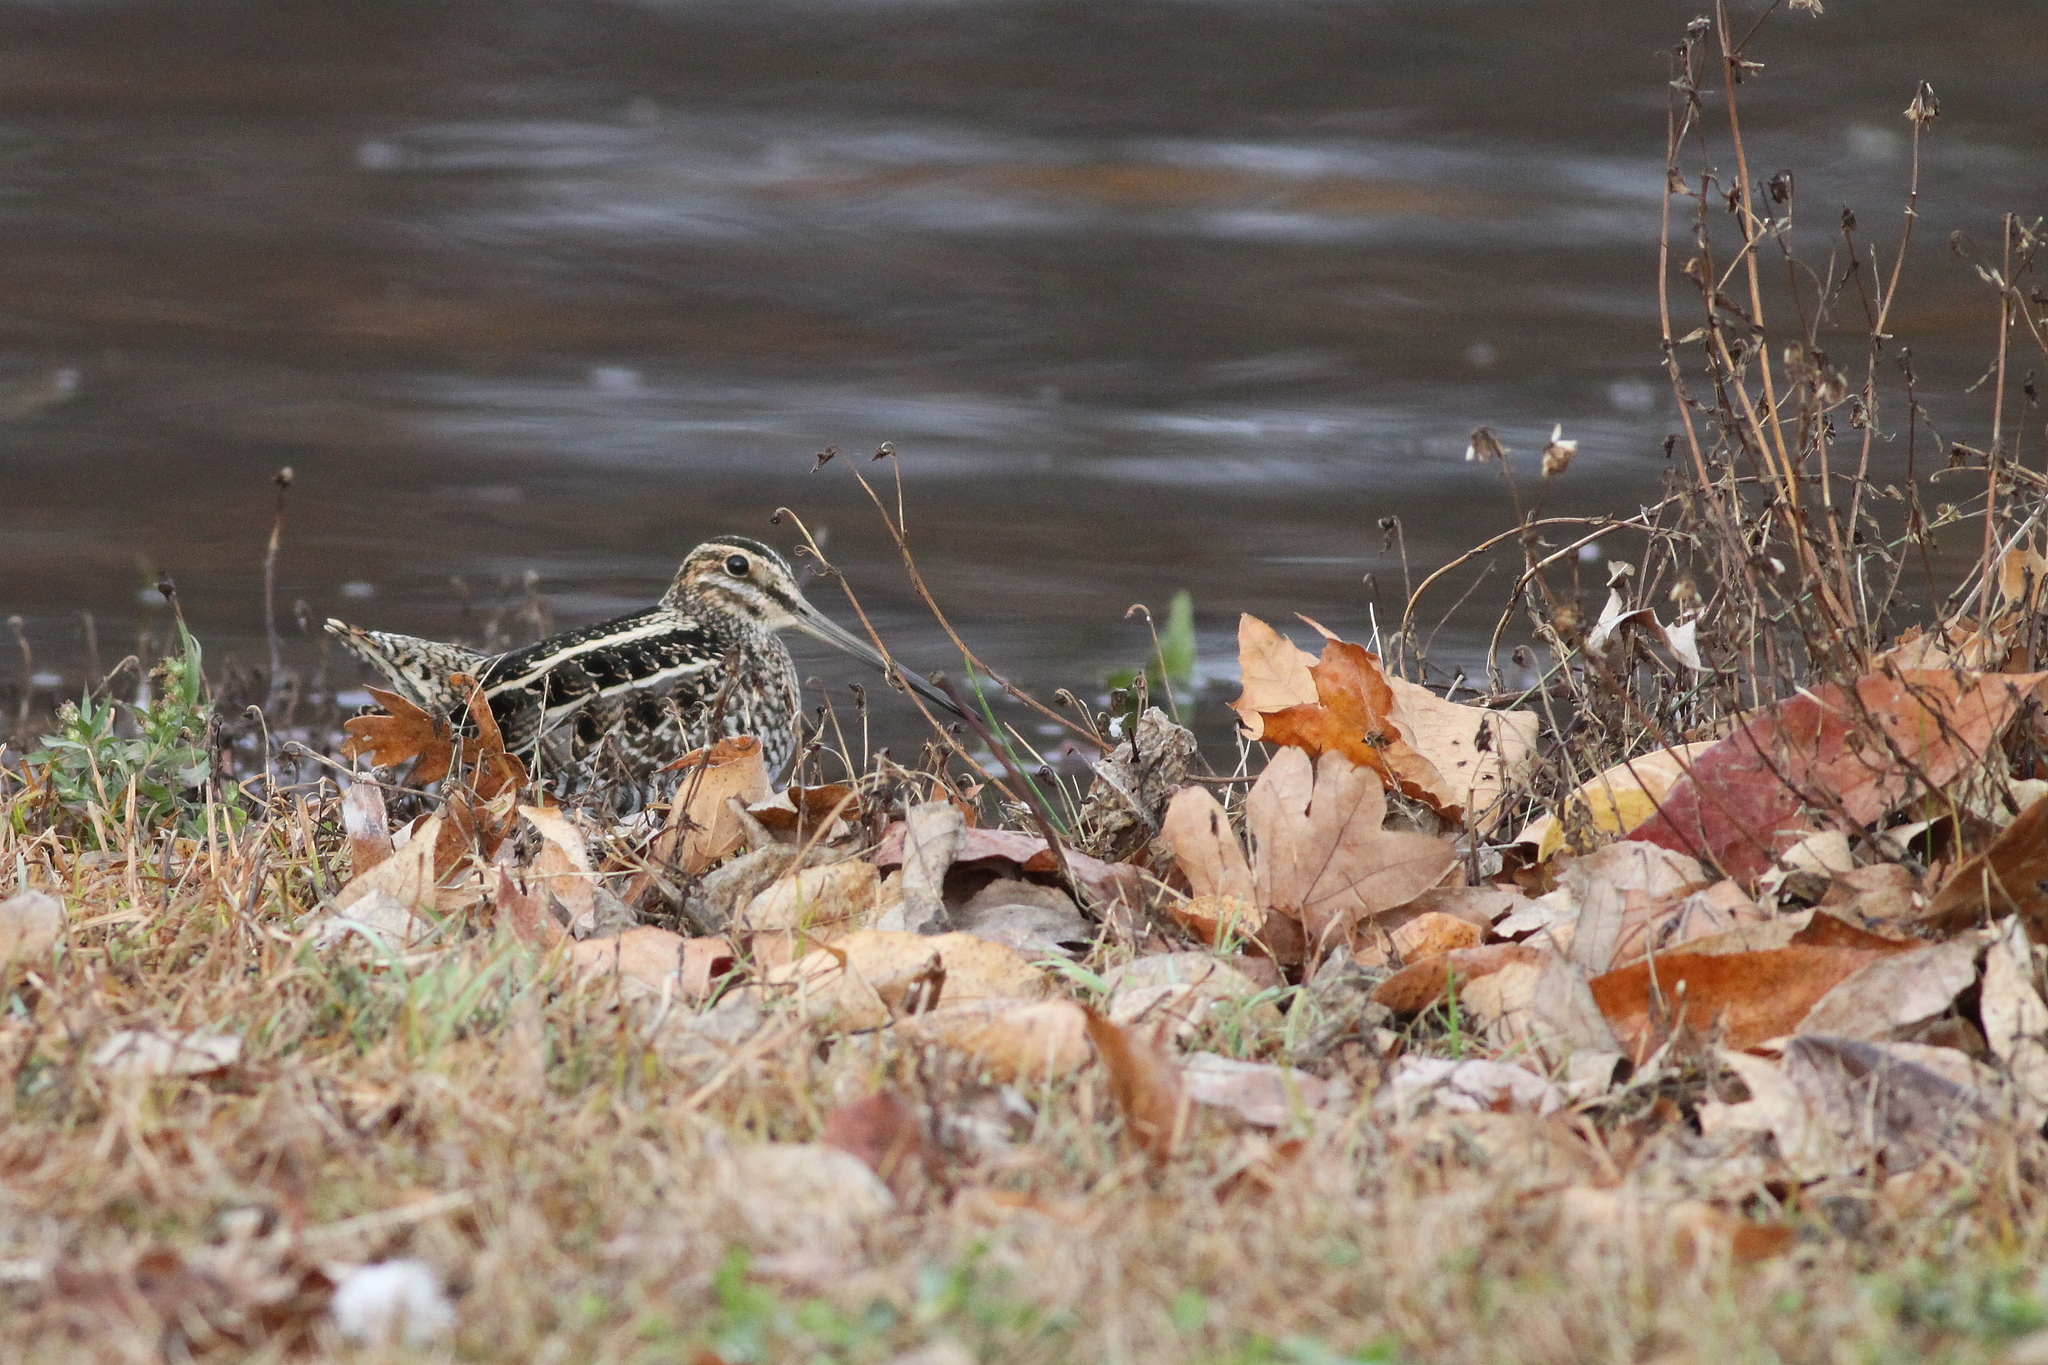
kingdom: Animalia
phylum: Chordata
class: Aves
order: Charadriiformes
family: Scolopacidae
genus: Gallinago
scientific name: Gallinago delicata
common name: Wilson's snipe
